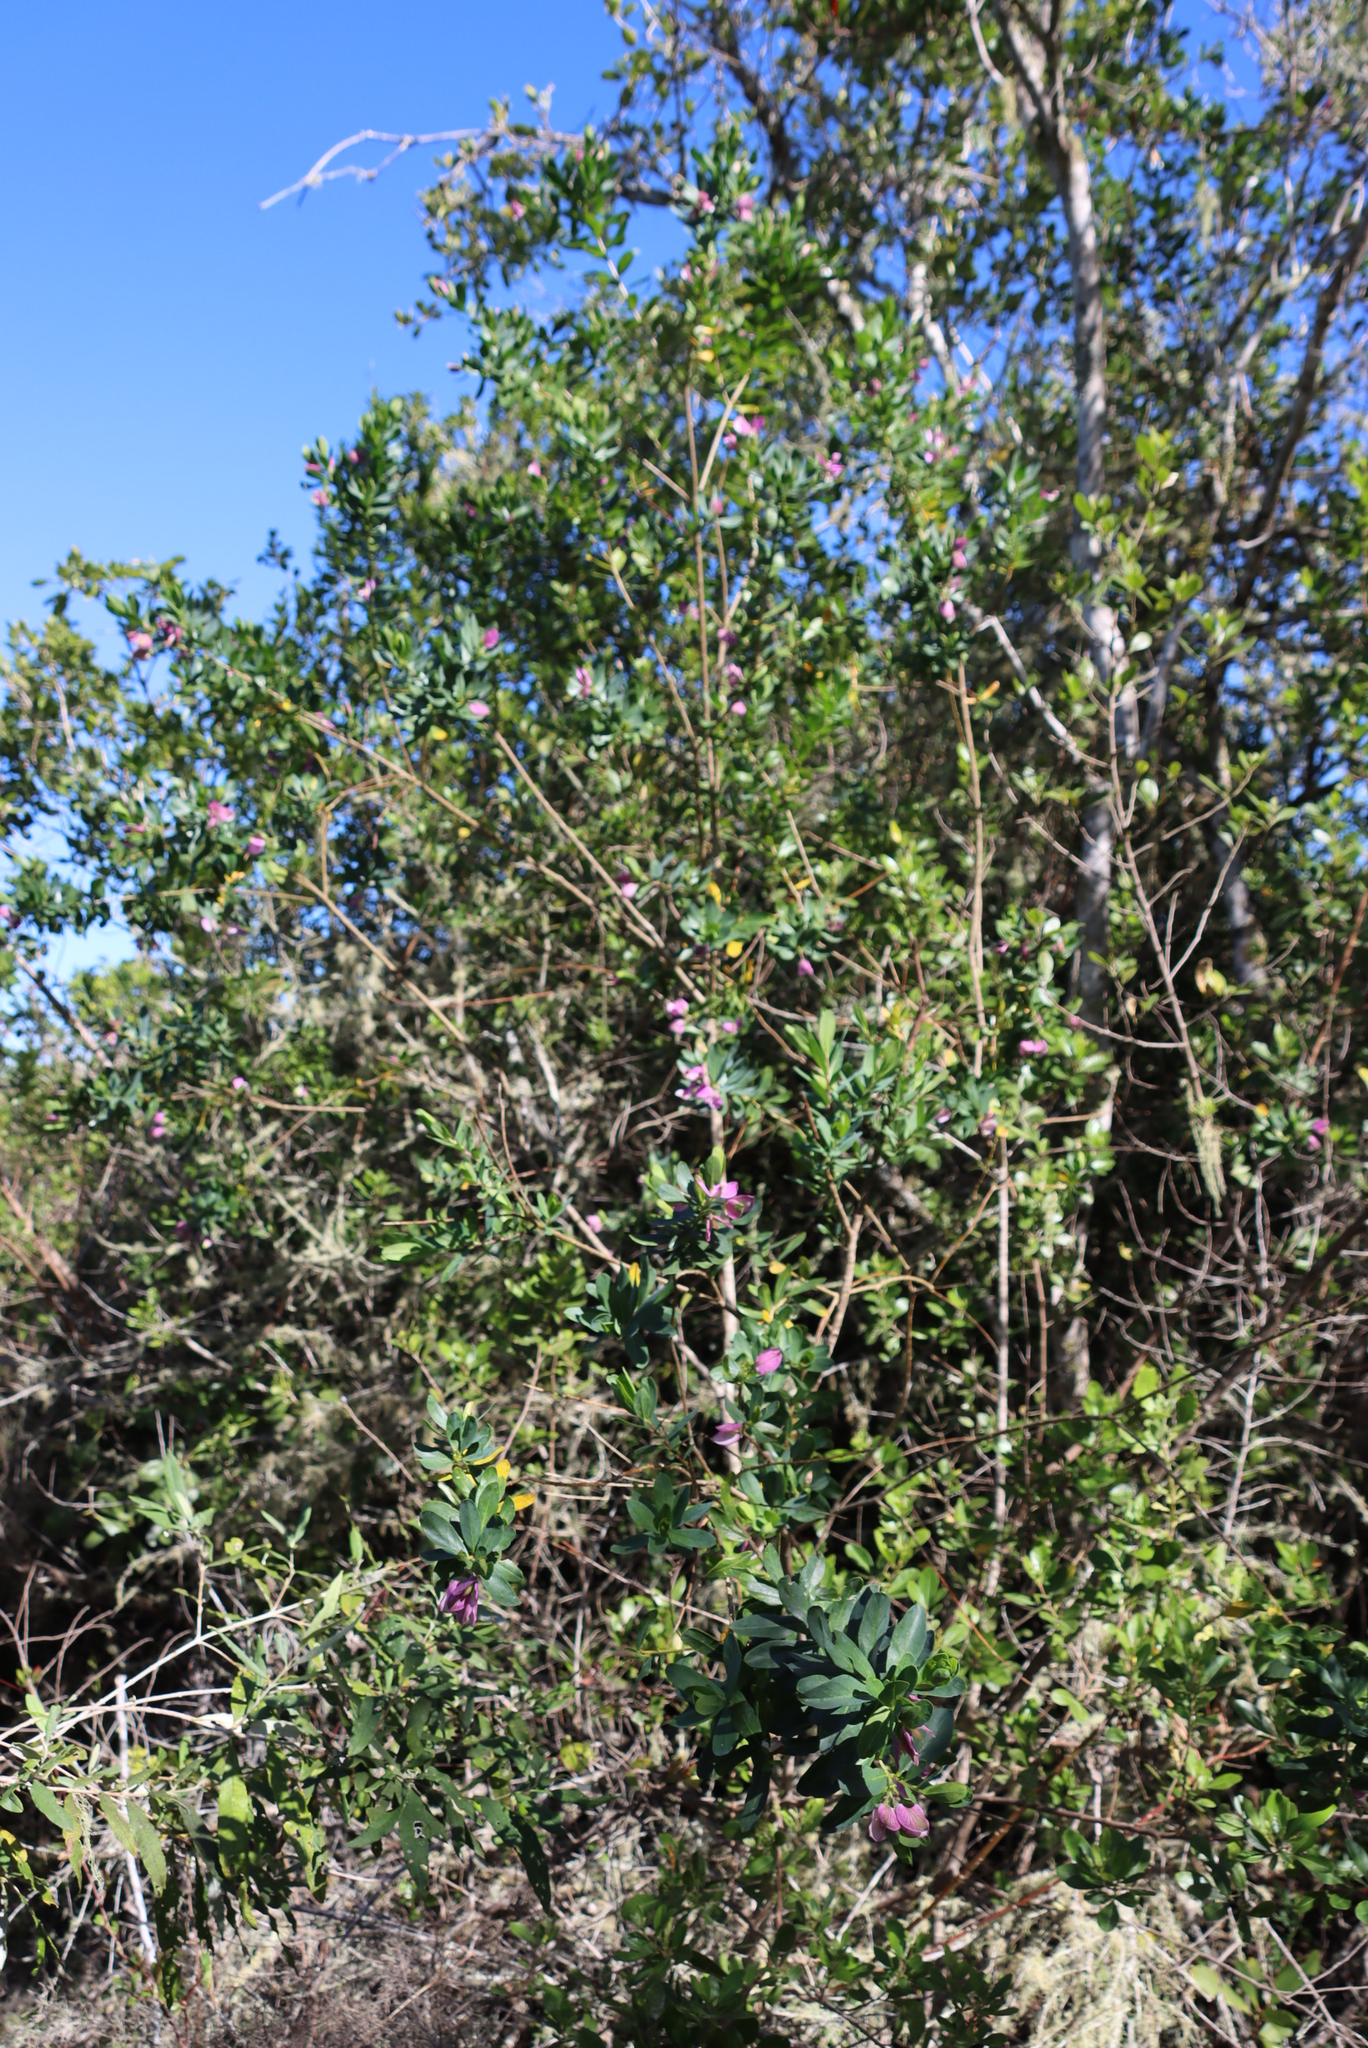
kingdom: Plantae
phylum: Tracheophyta
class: Magnoliopsida
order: Fabales
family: Polygalaceae
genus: Polygala
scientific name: Polygala myrtifolia
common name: Myrtle-leaf milkwort
